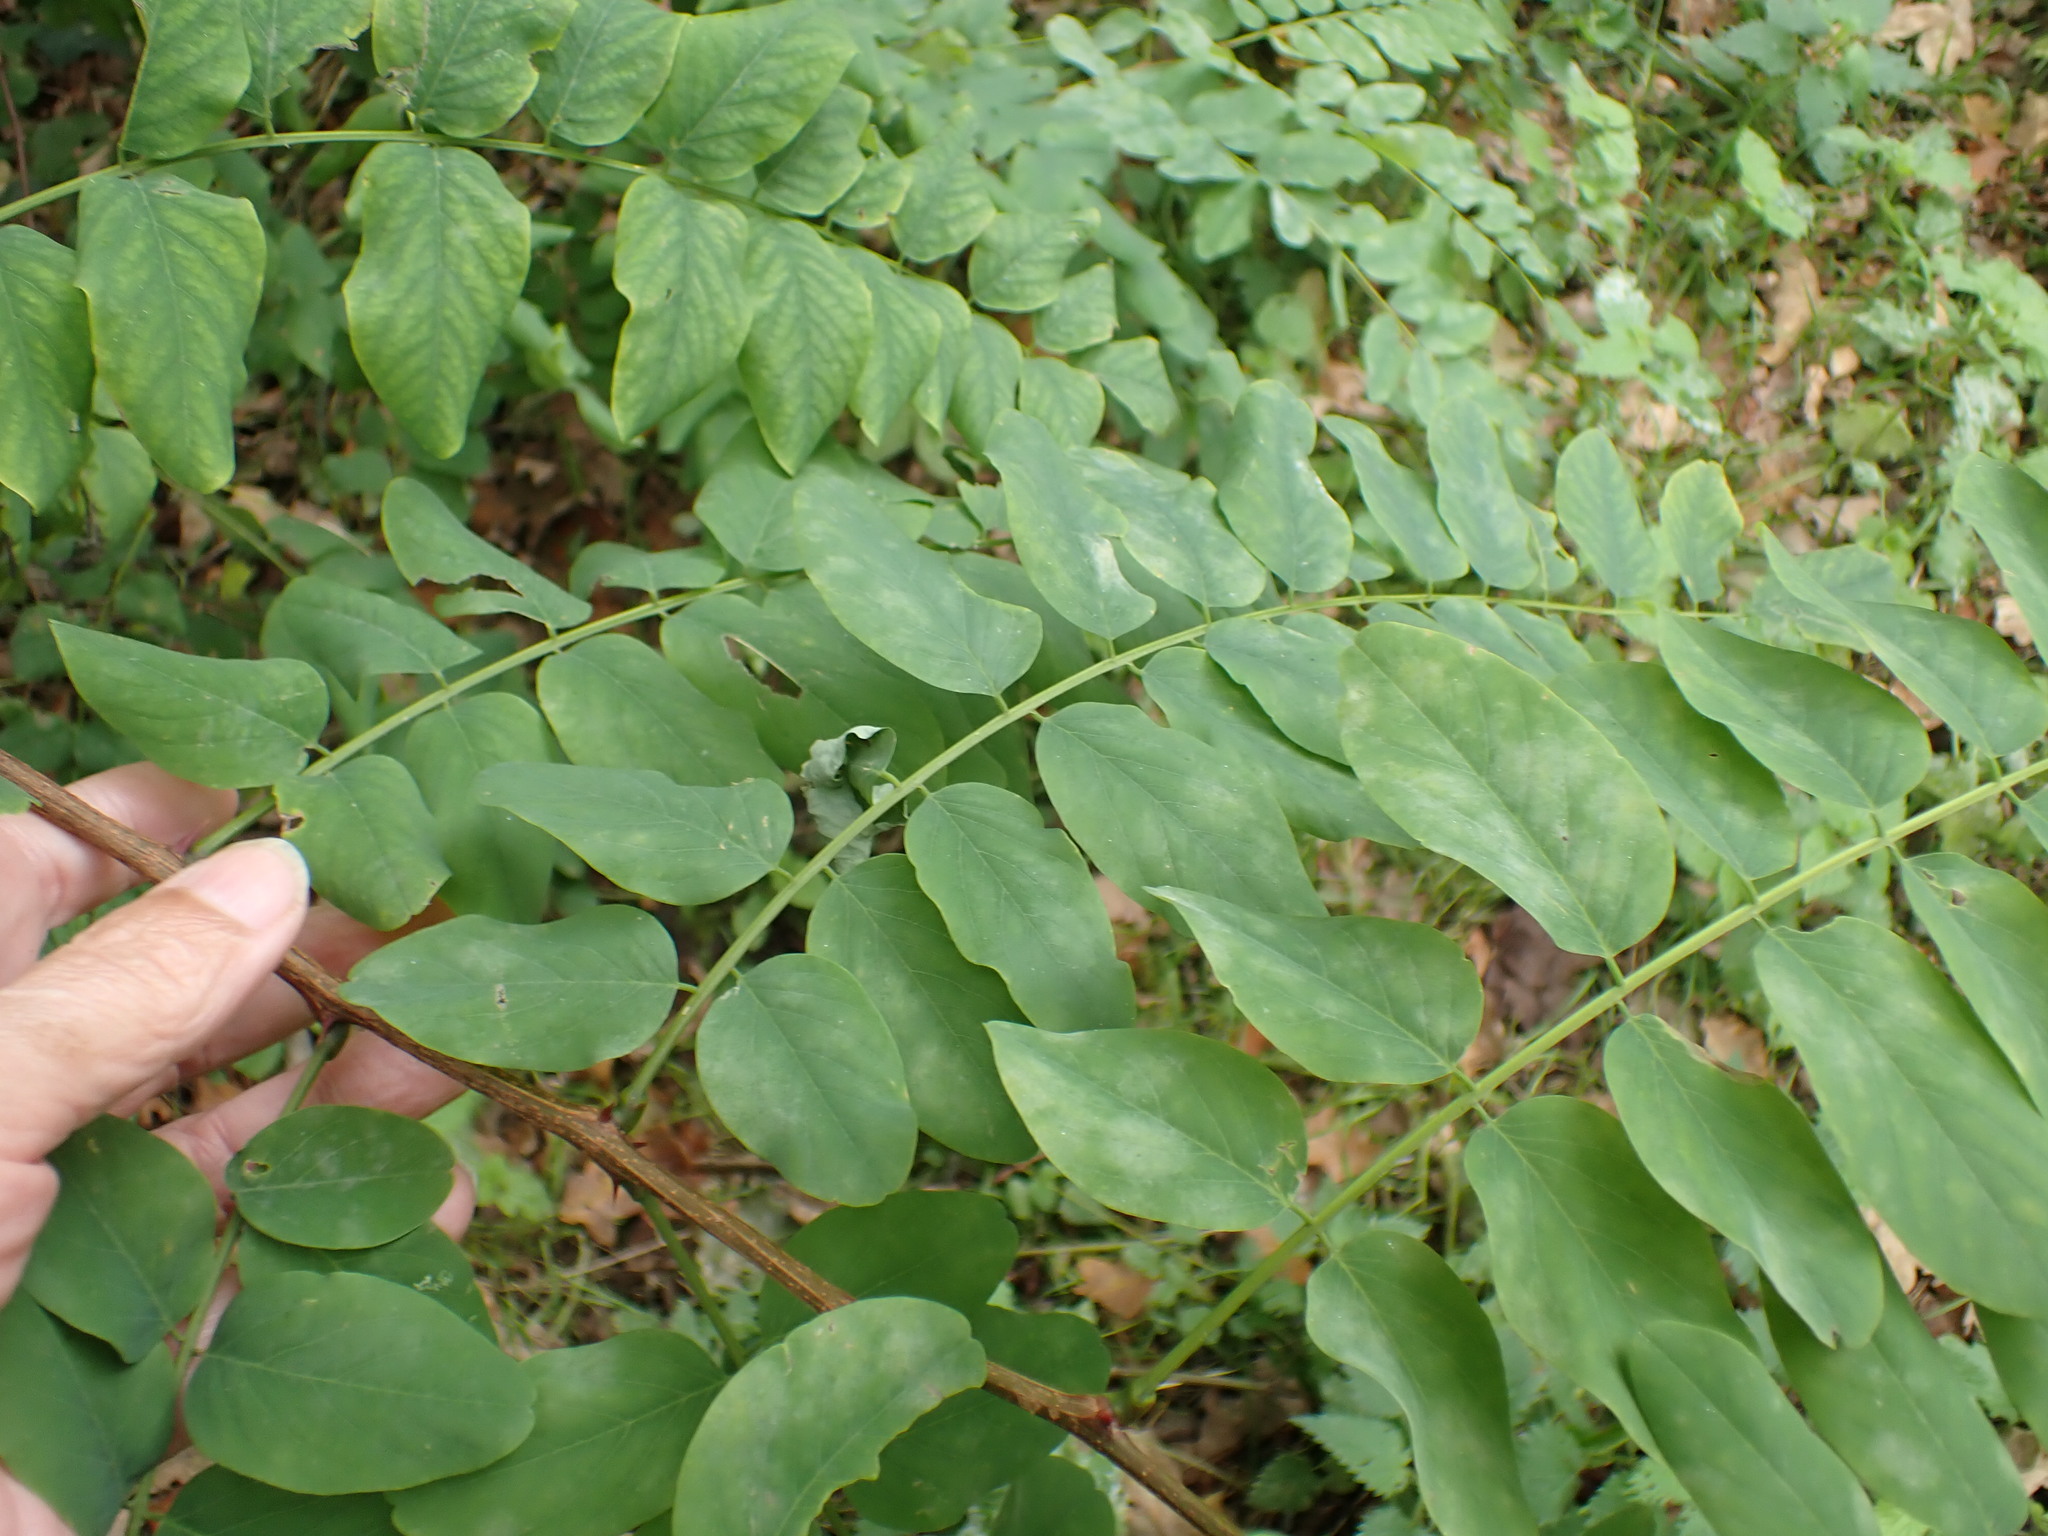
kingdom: Plantae
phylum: Tracheophyta
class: Magnoliopsida
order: Fabales
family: Fabaceae
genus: Robinia
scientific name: Robinia pseudoacacia
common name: Black locust
